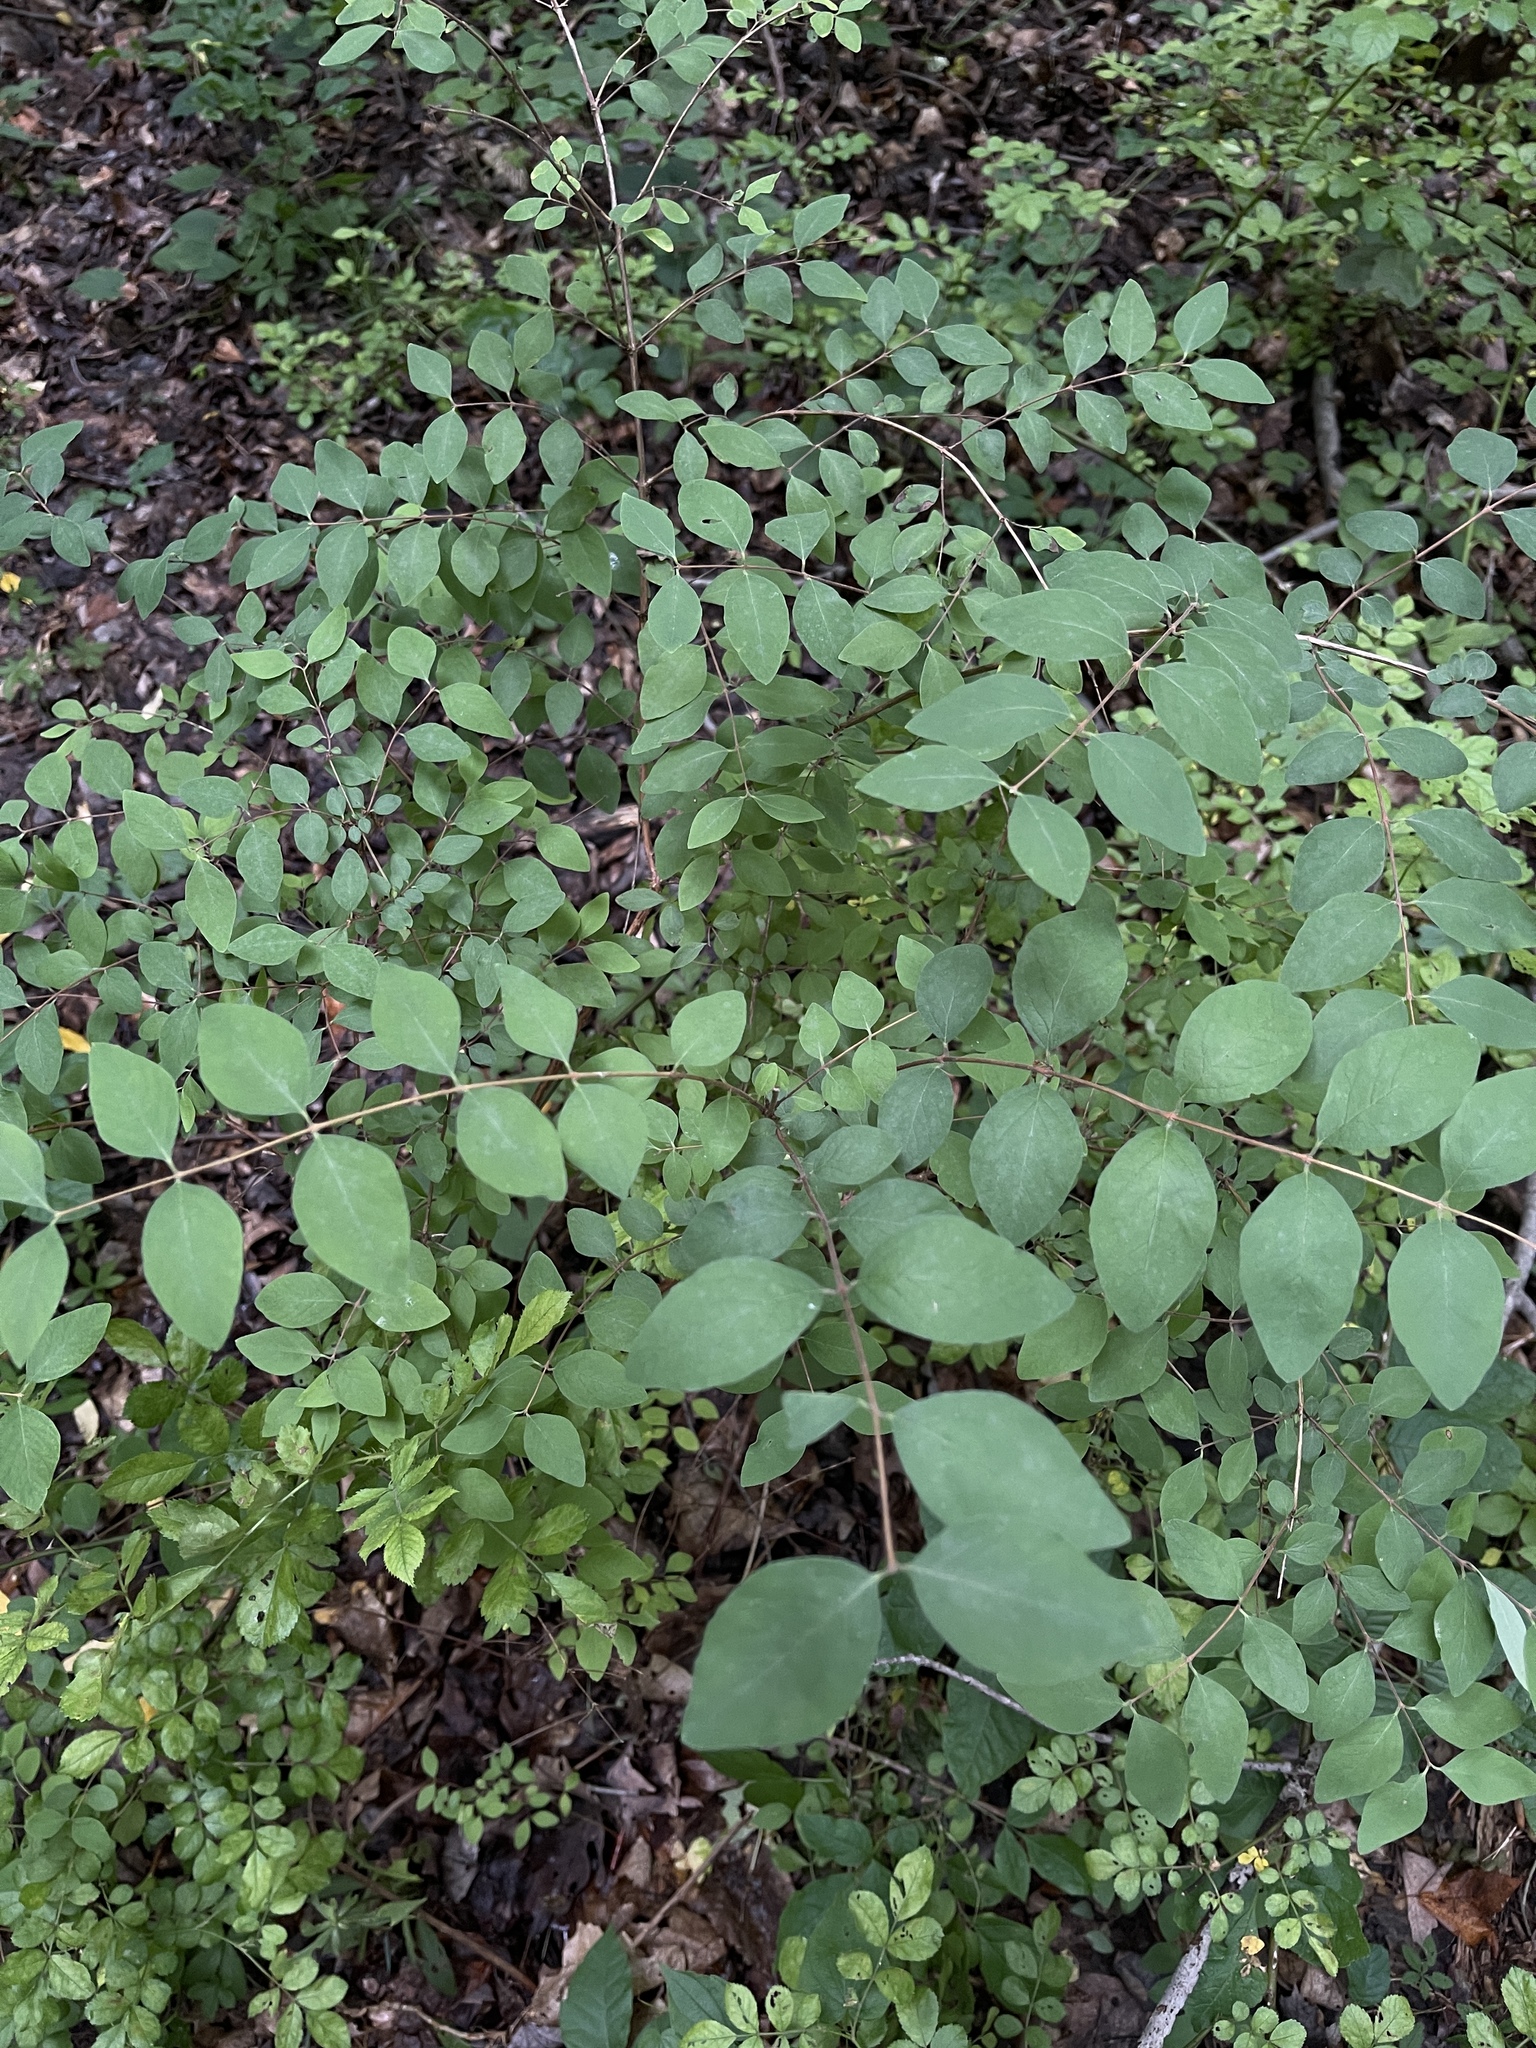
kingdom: Plantae
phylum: Tracheophyta
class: Magnoliopsida
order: Dipsacales
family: Caprifoliaceae
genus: Symphoricarpos
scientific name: Symphoricarpos orbiculatus
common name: Coralberry
